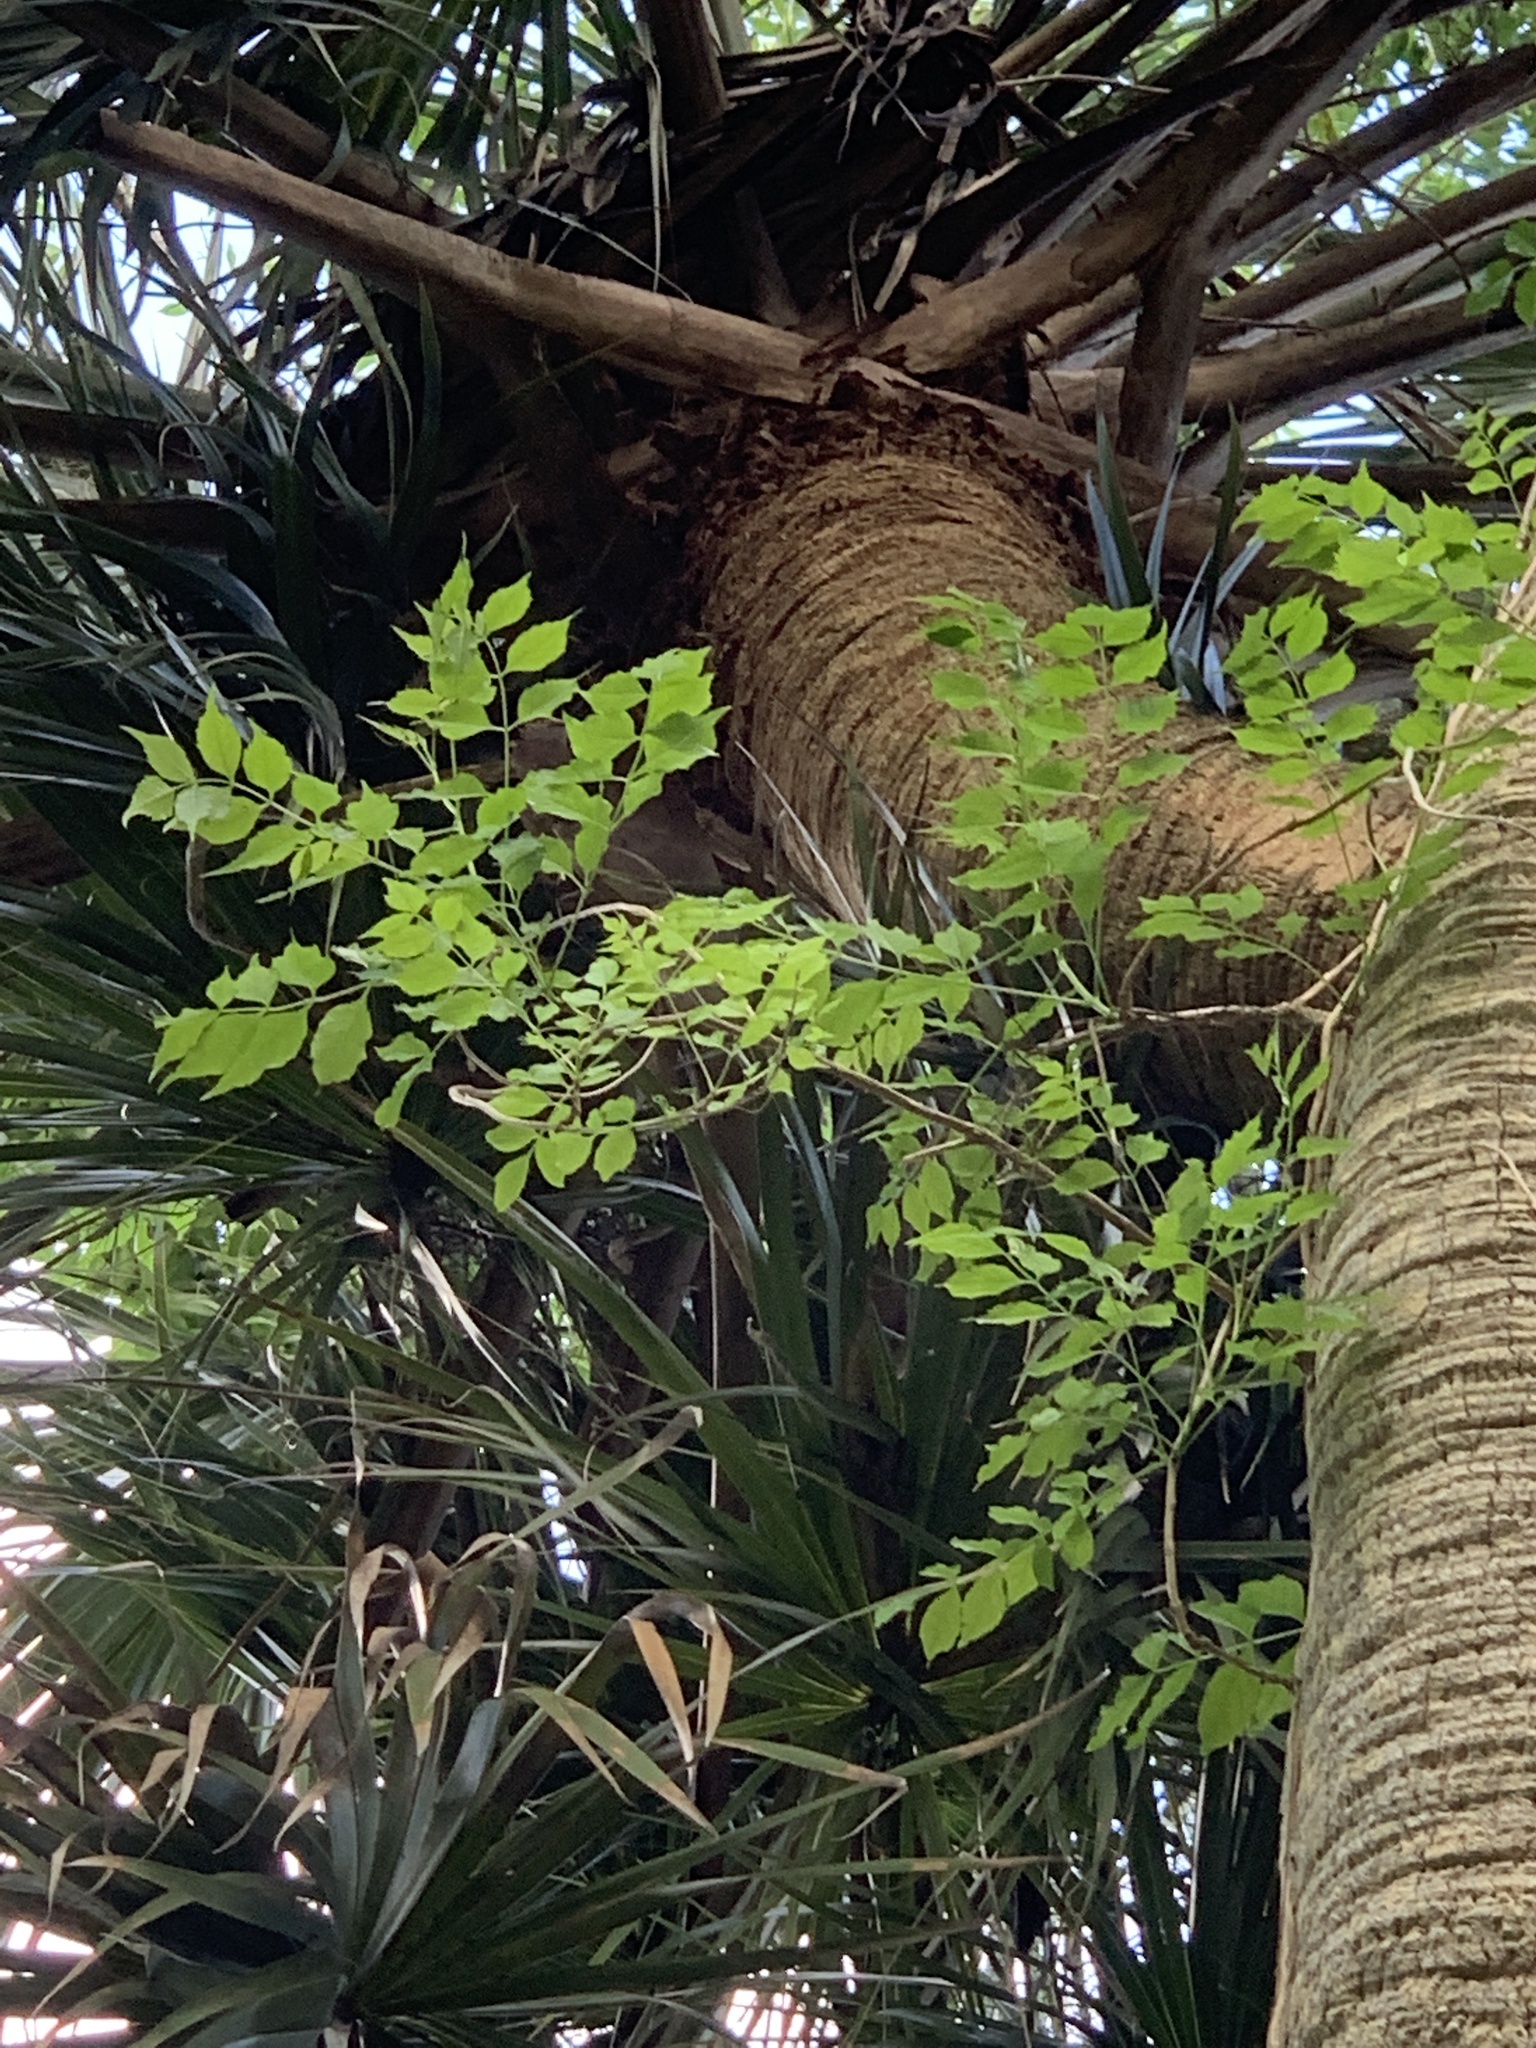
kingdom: Plantae
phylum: Tracheophyta
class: Magnoliopsida
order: Lamiales
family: Bignoniaceae
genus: Campsis
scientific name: Campsis radicans
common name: Trumpet-creeper
